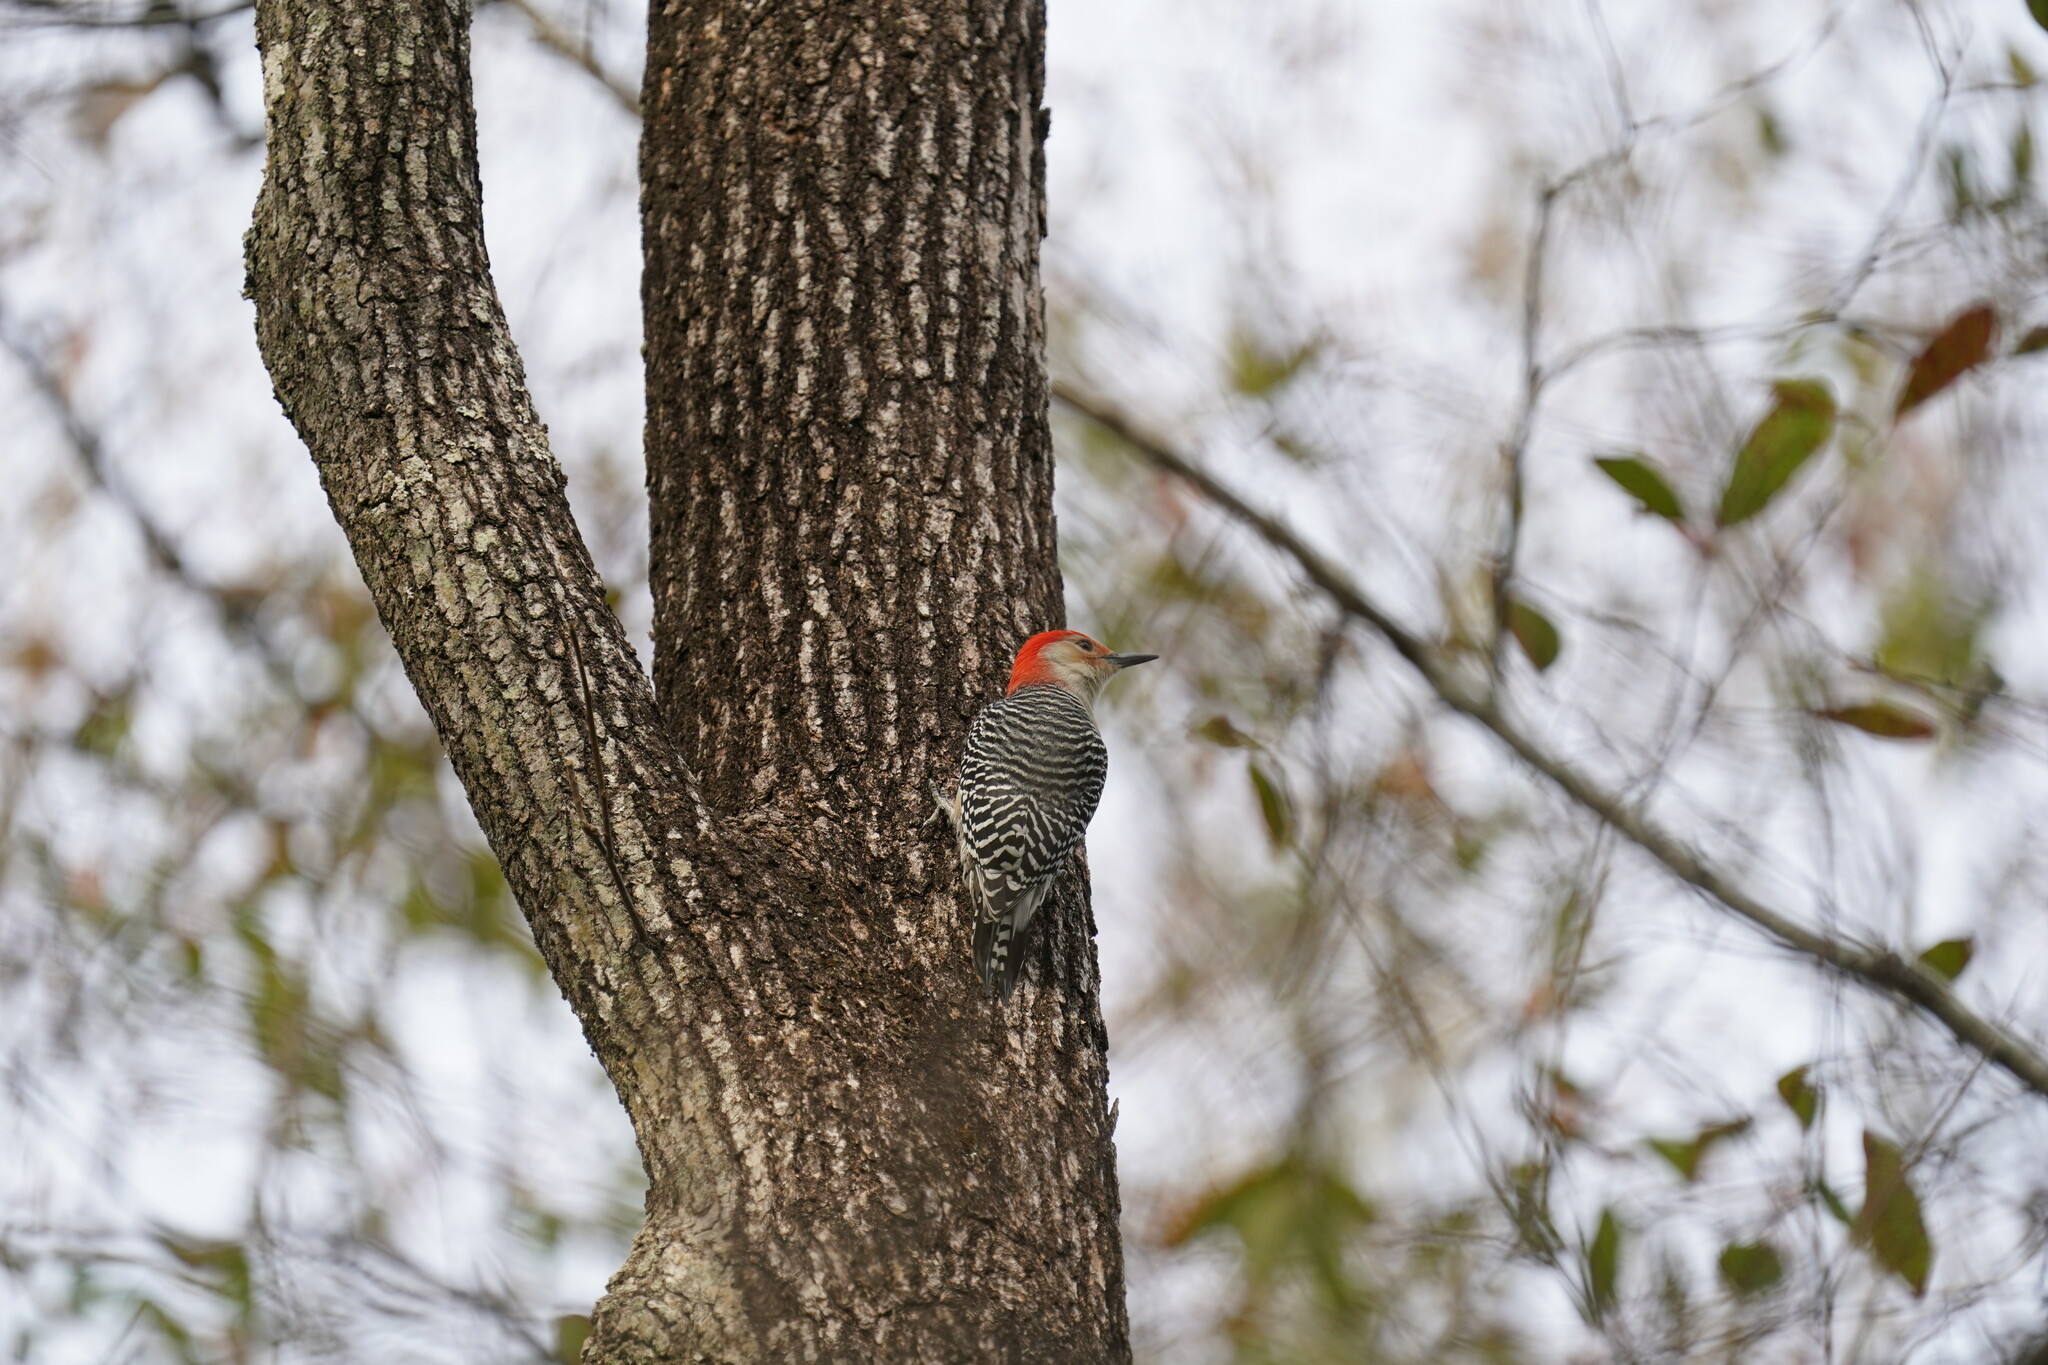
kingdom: Animalia
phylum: Chordata
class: Aves
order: Piciformes
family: Picidae
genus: Melanerpes
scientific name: Melanerpes carolinus
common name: Red-bellied woodpecker
